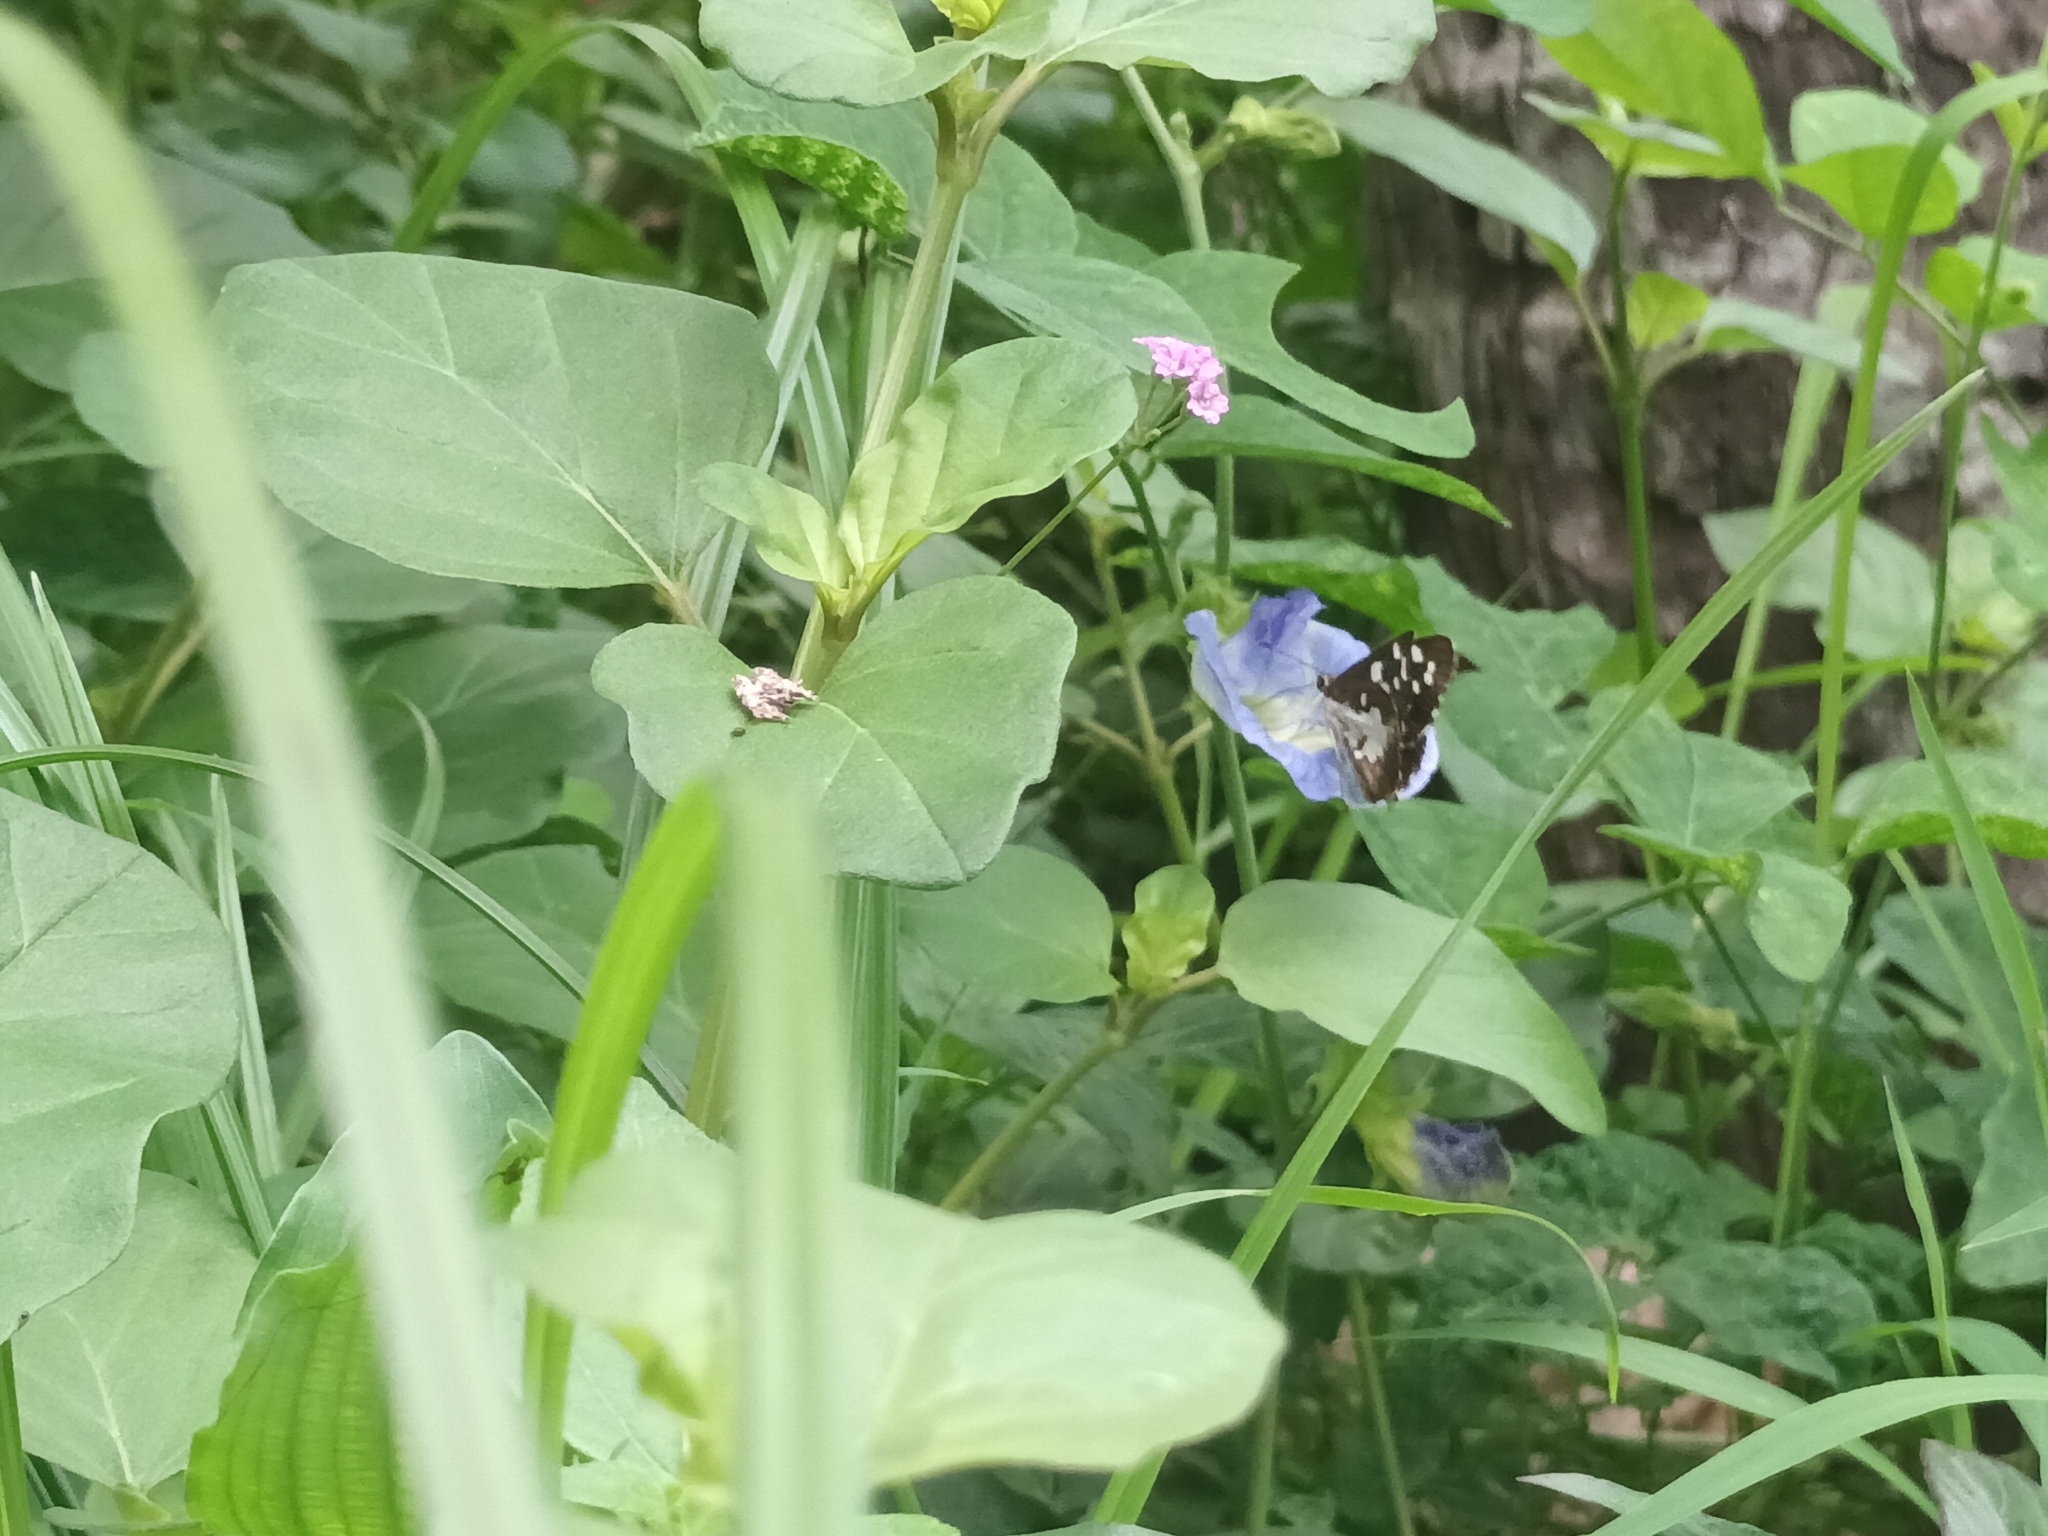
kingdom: Animalia
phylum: Arthropoda
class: Insecta
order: Lepidoptera
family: Hesperiidae
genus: Udaspes
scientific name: Udaspes folus
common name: Grass demon
